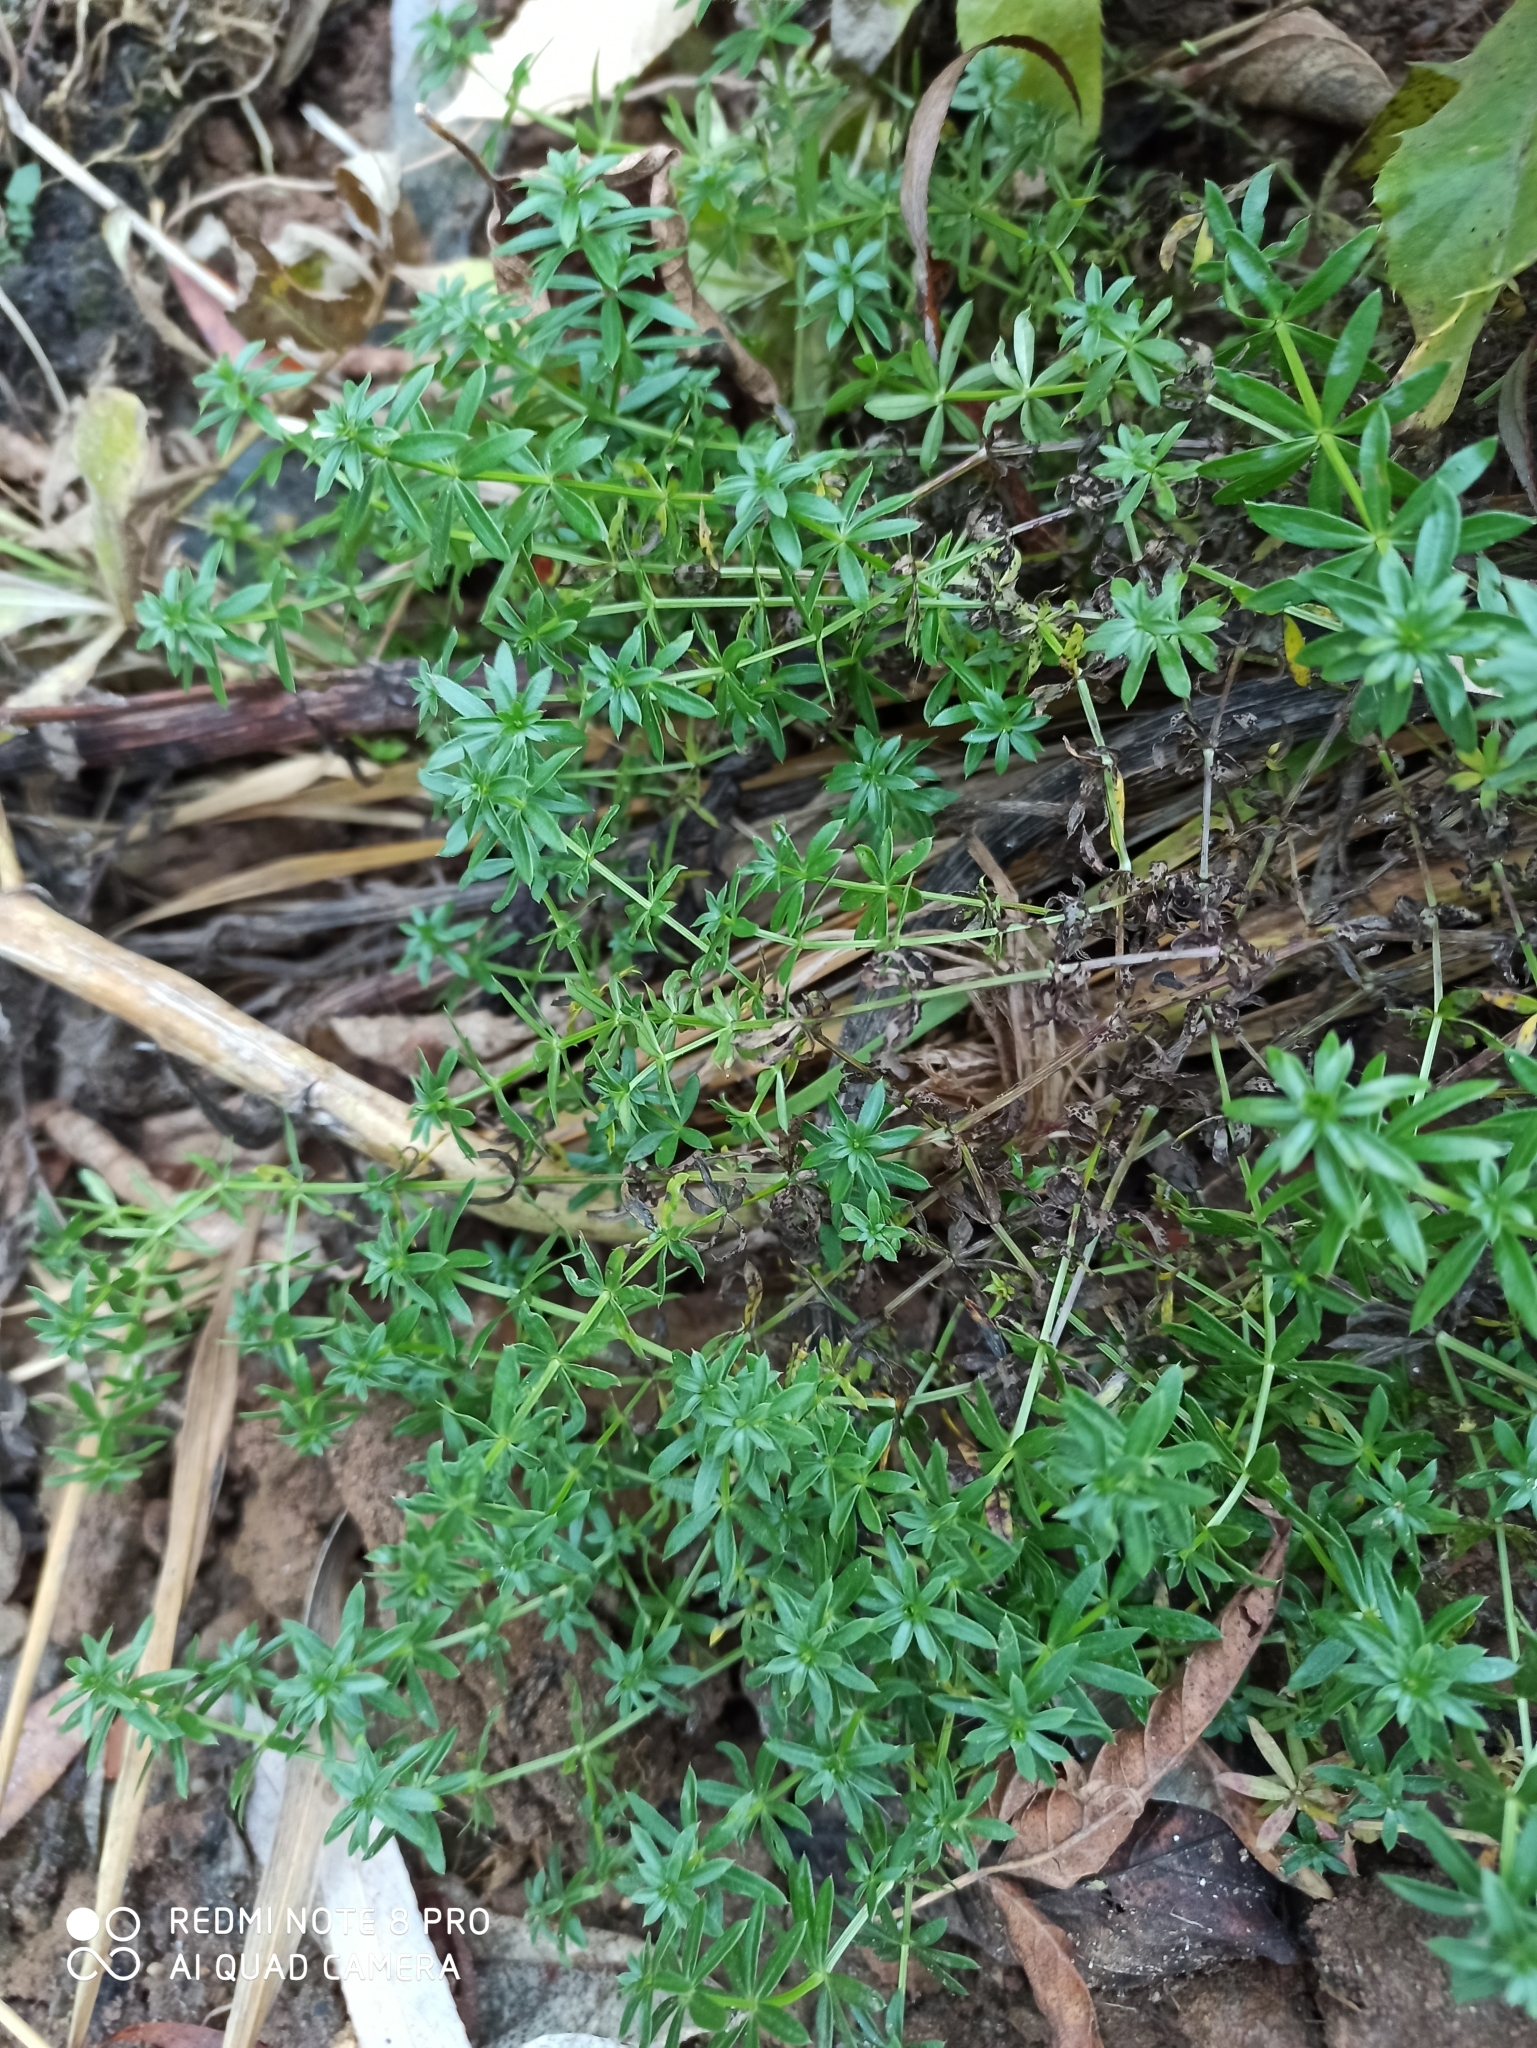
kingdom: Plantae
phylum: Tracheophyta
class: Magnoliopsida
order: Gentianales
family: Rubiaceae
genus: Galium
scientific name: Galium mollugo
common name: Hedge bedstraw
